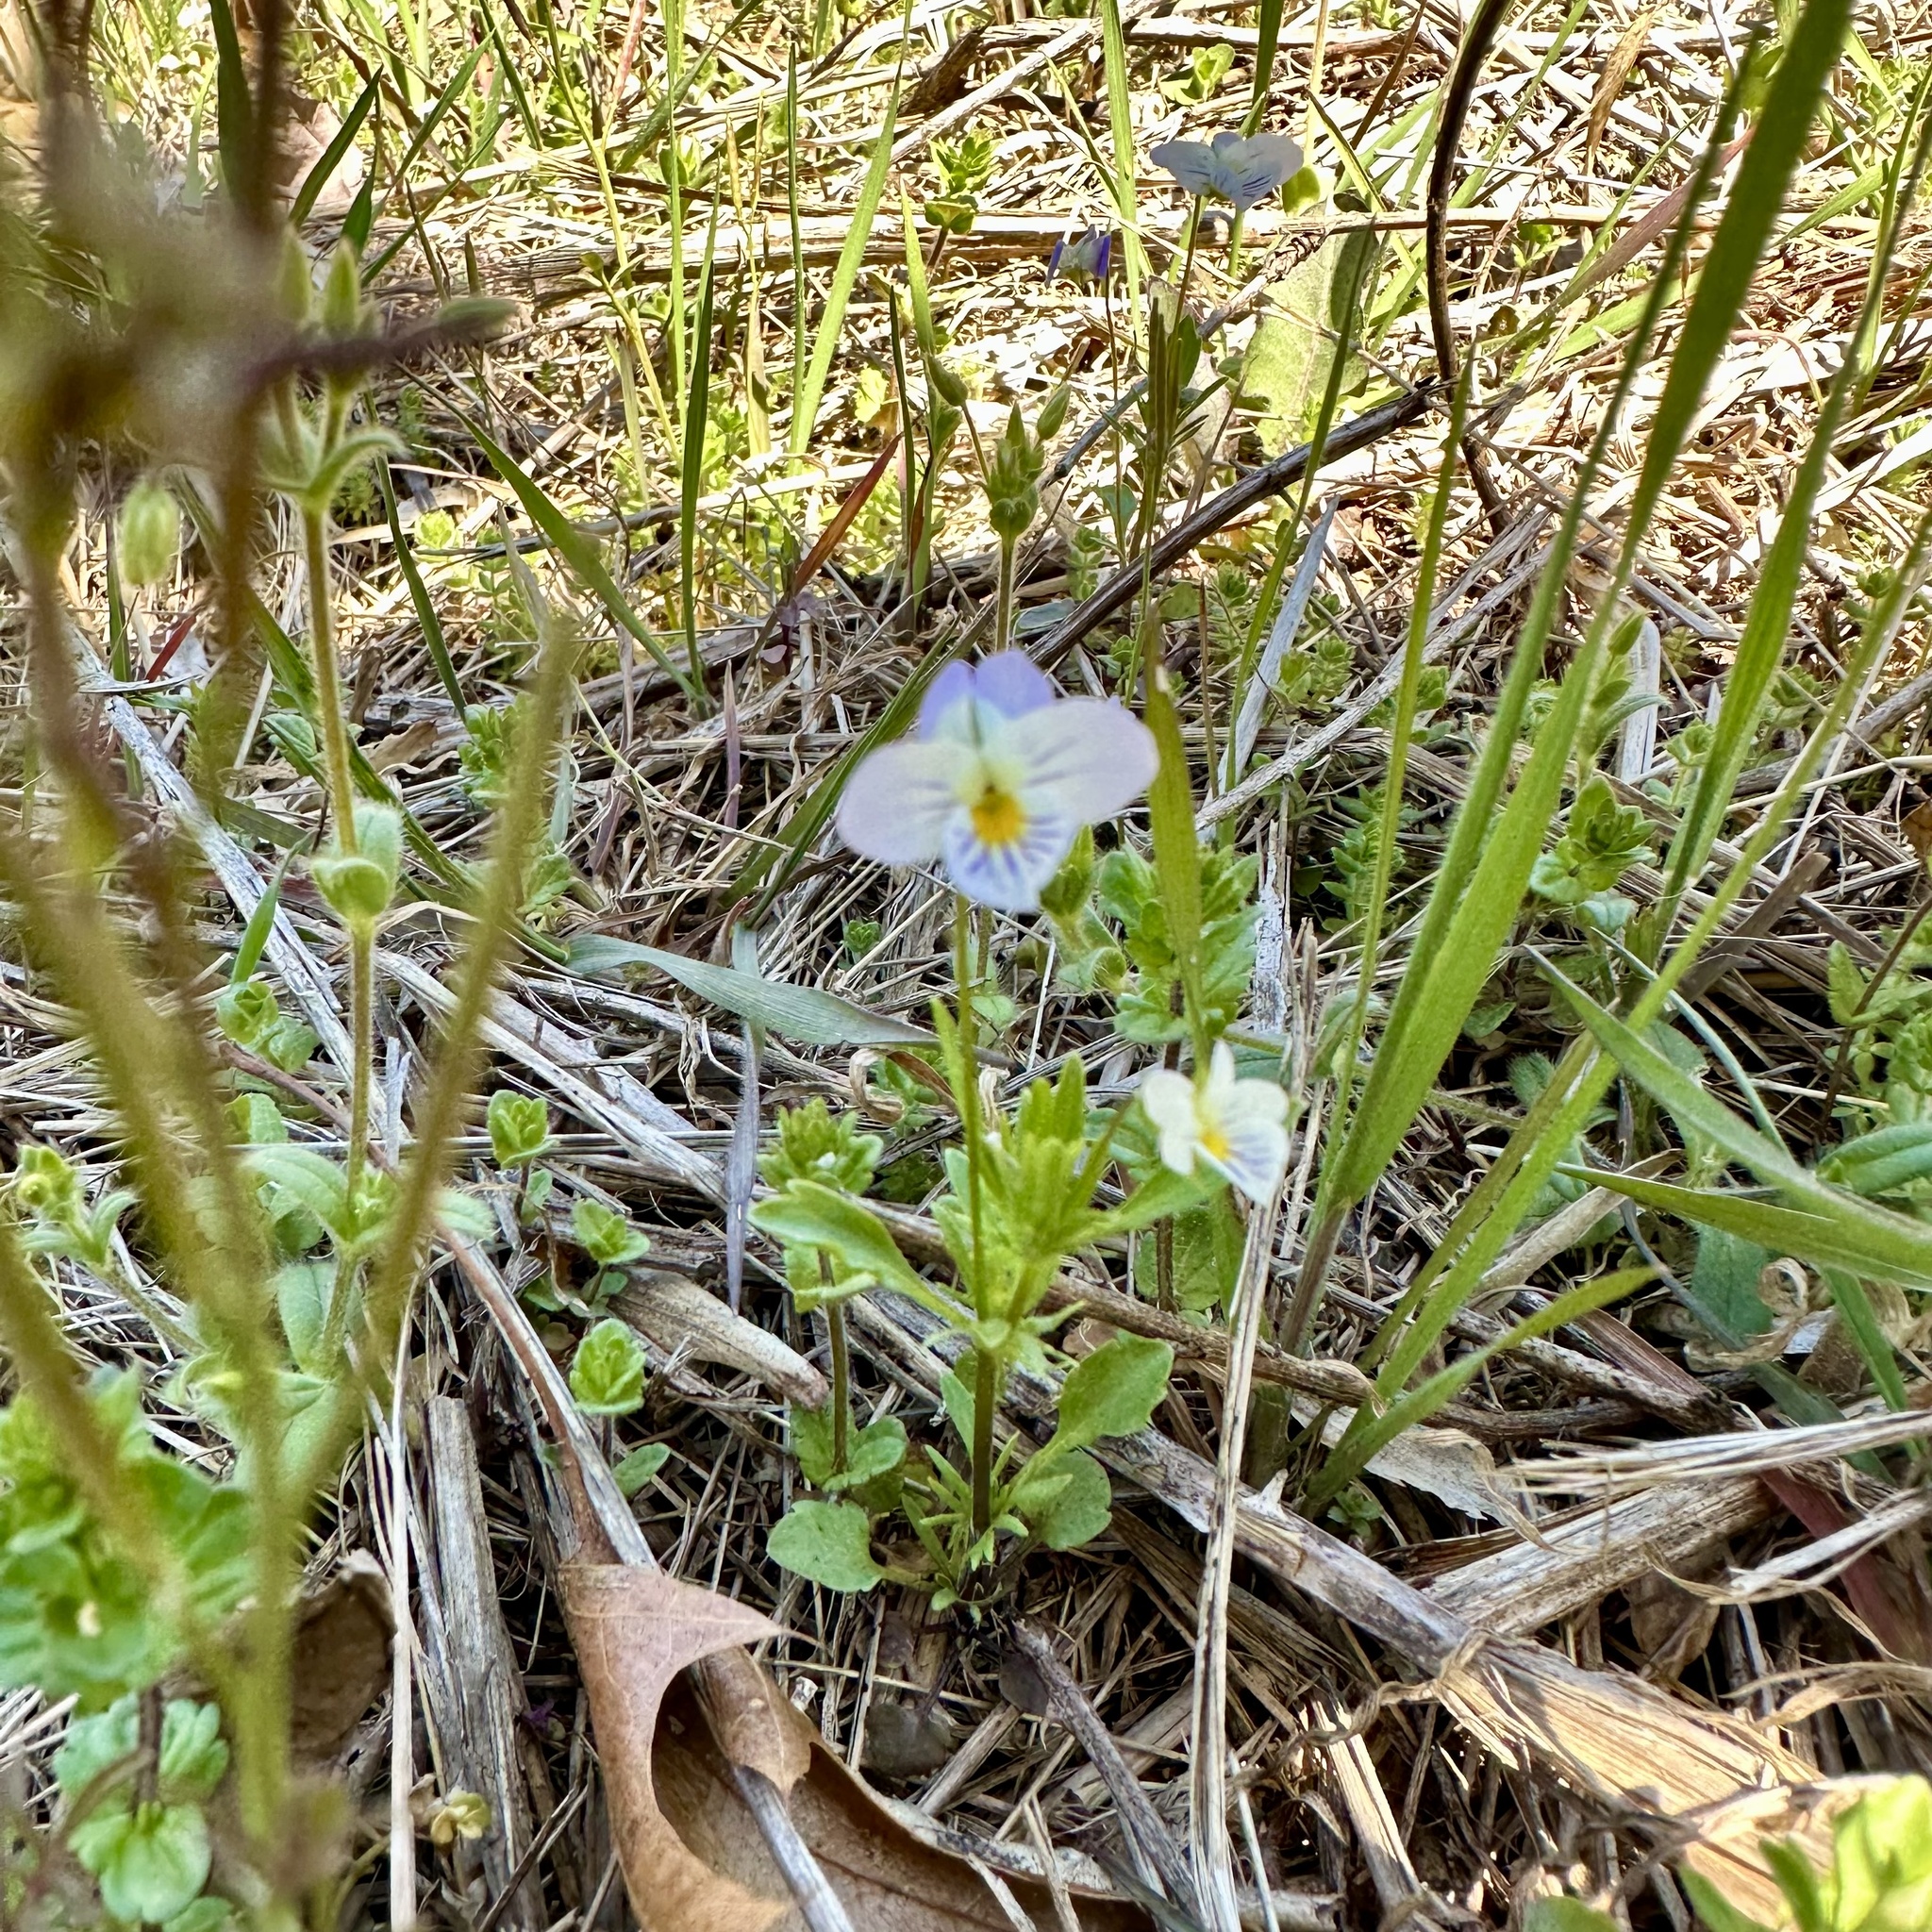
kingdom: Plantae
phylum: Tracheophyta
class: Magnoliopsida
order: Malpighiales
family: Violaceae
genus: Viola
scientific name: Viola rafinesquei
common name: American field pansy
